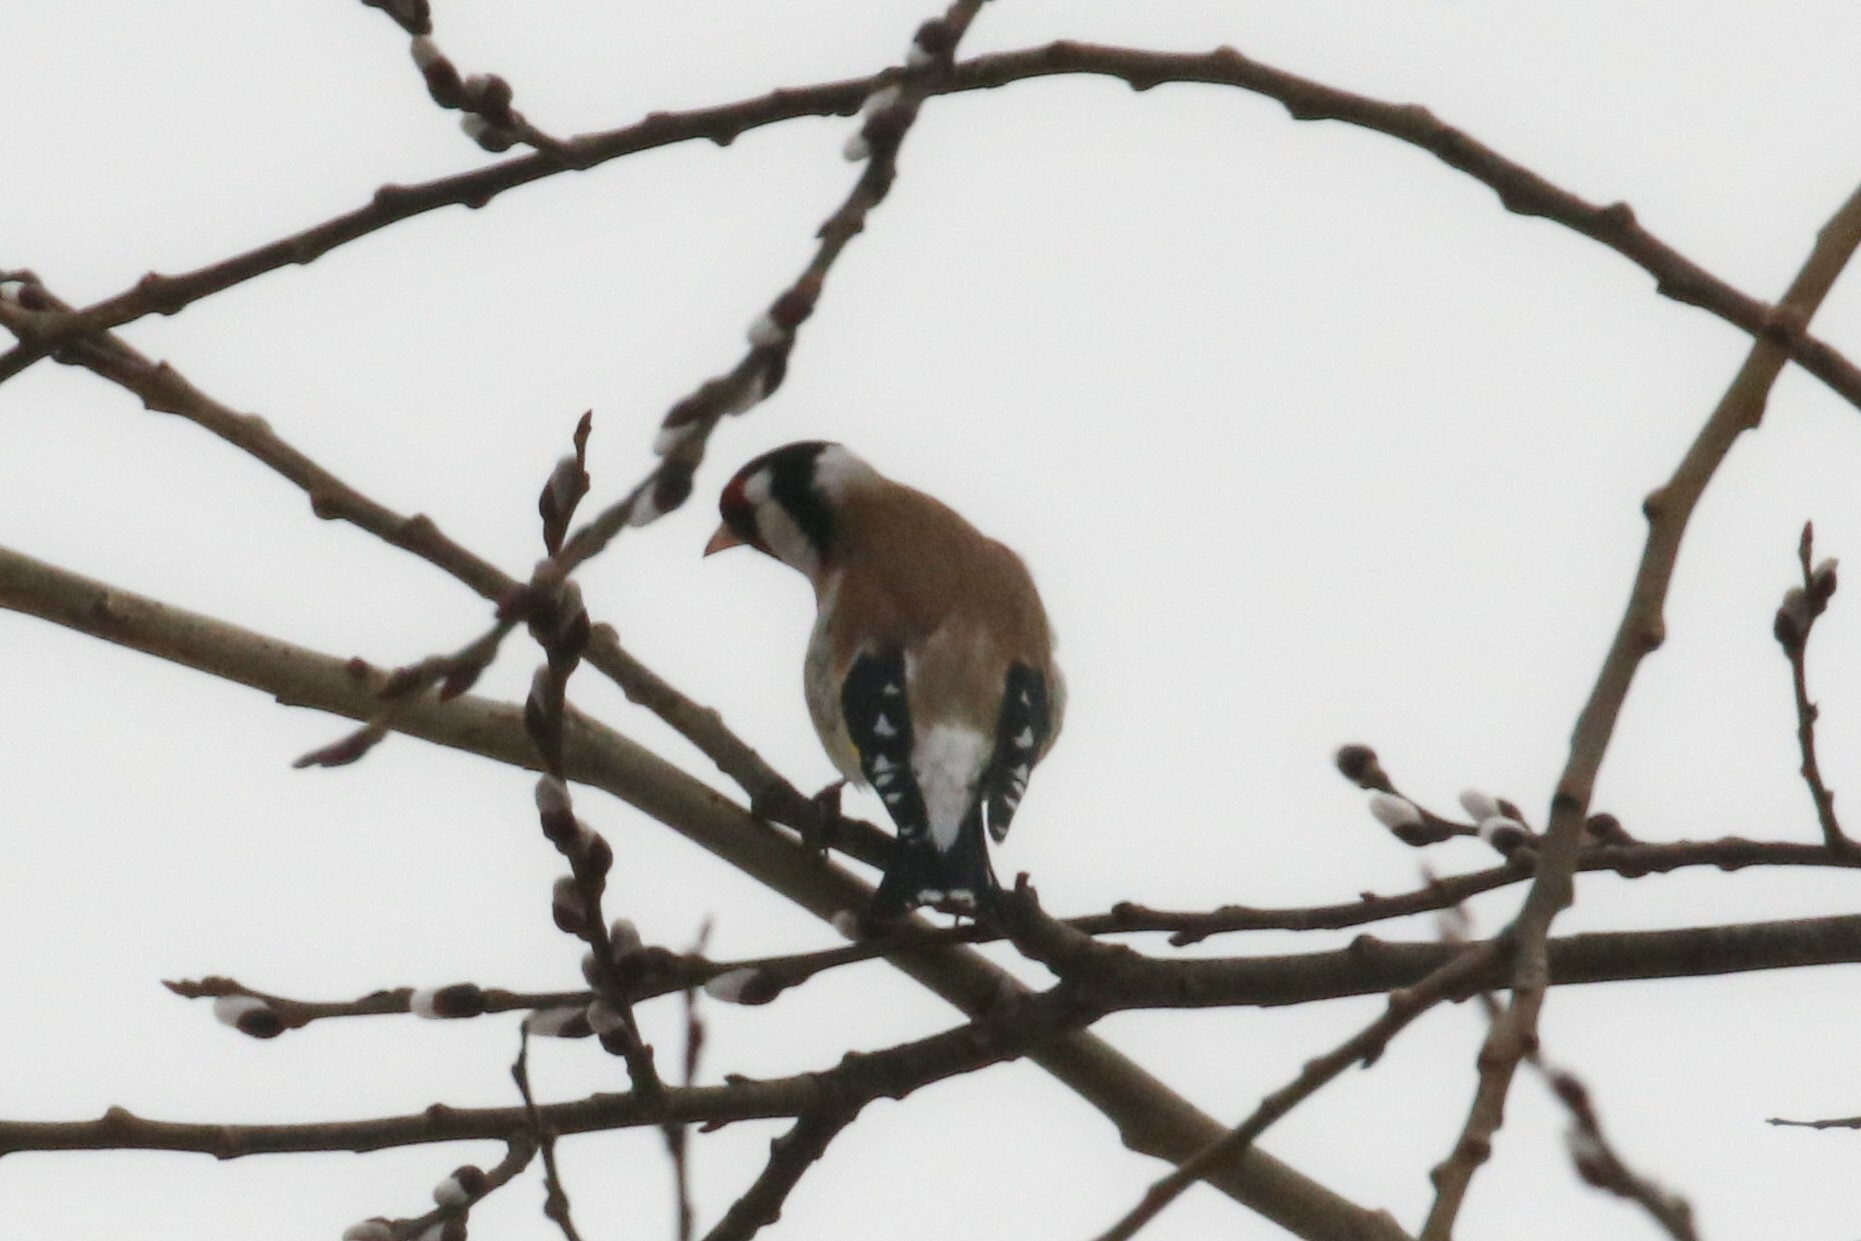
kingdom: Animalia
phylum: Chordata
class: Aves
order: Passeriformes
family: Fringillidae
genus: Carduelis
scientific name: Carduelis carduelis
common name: European goldfinch
